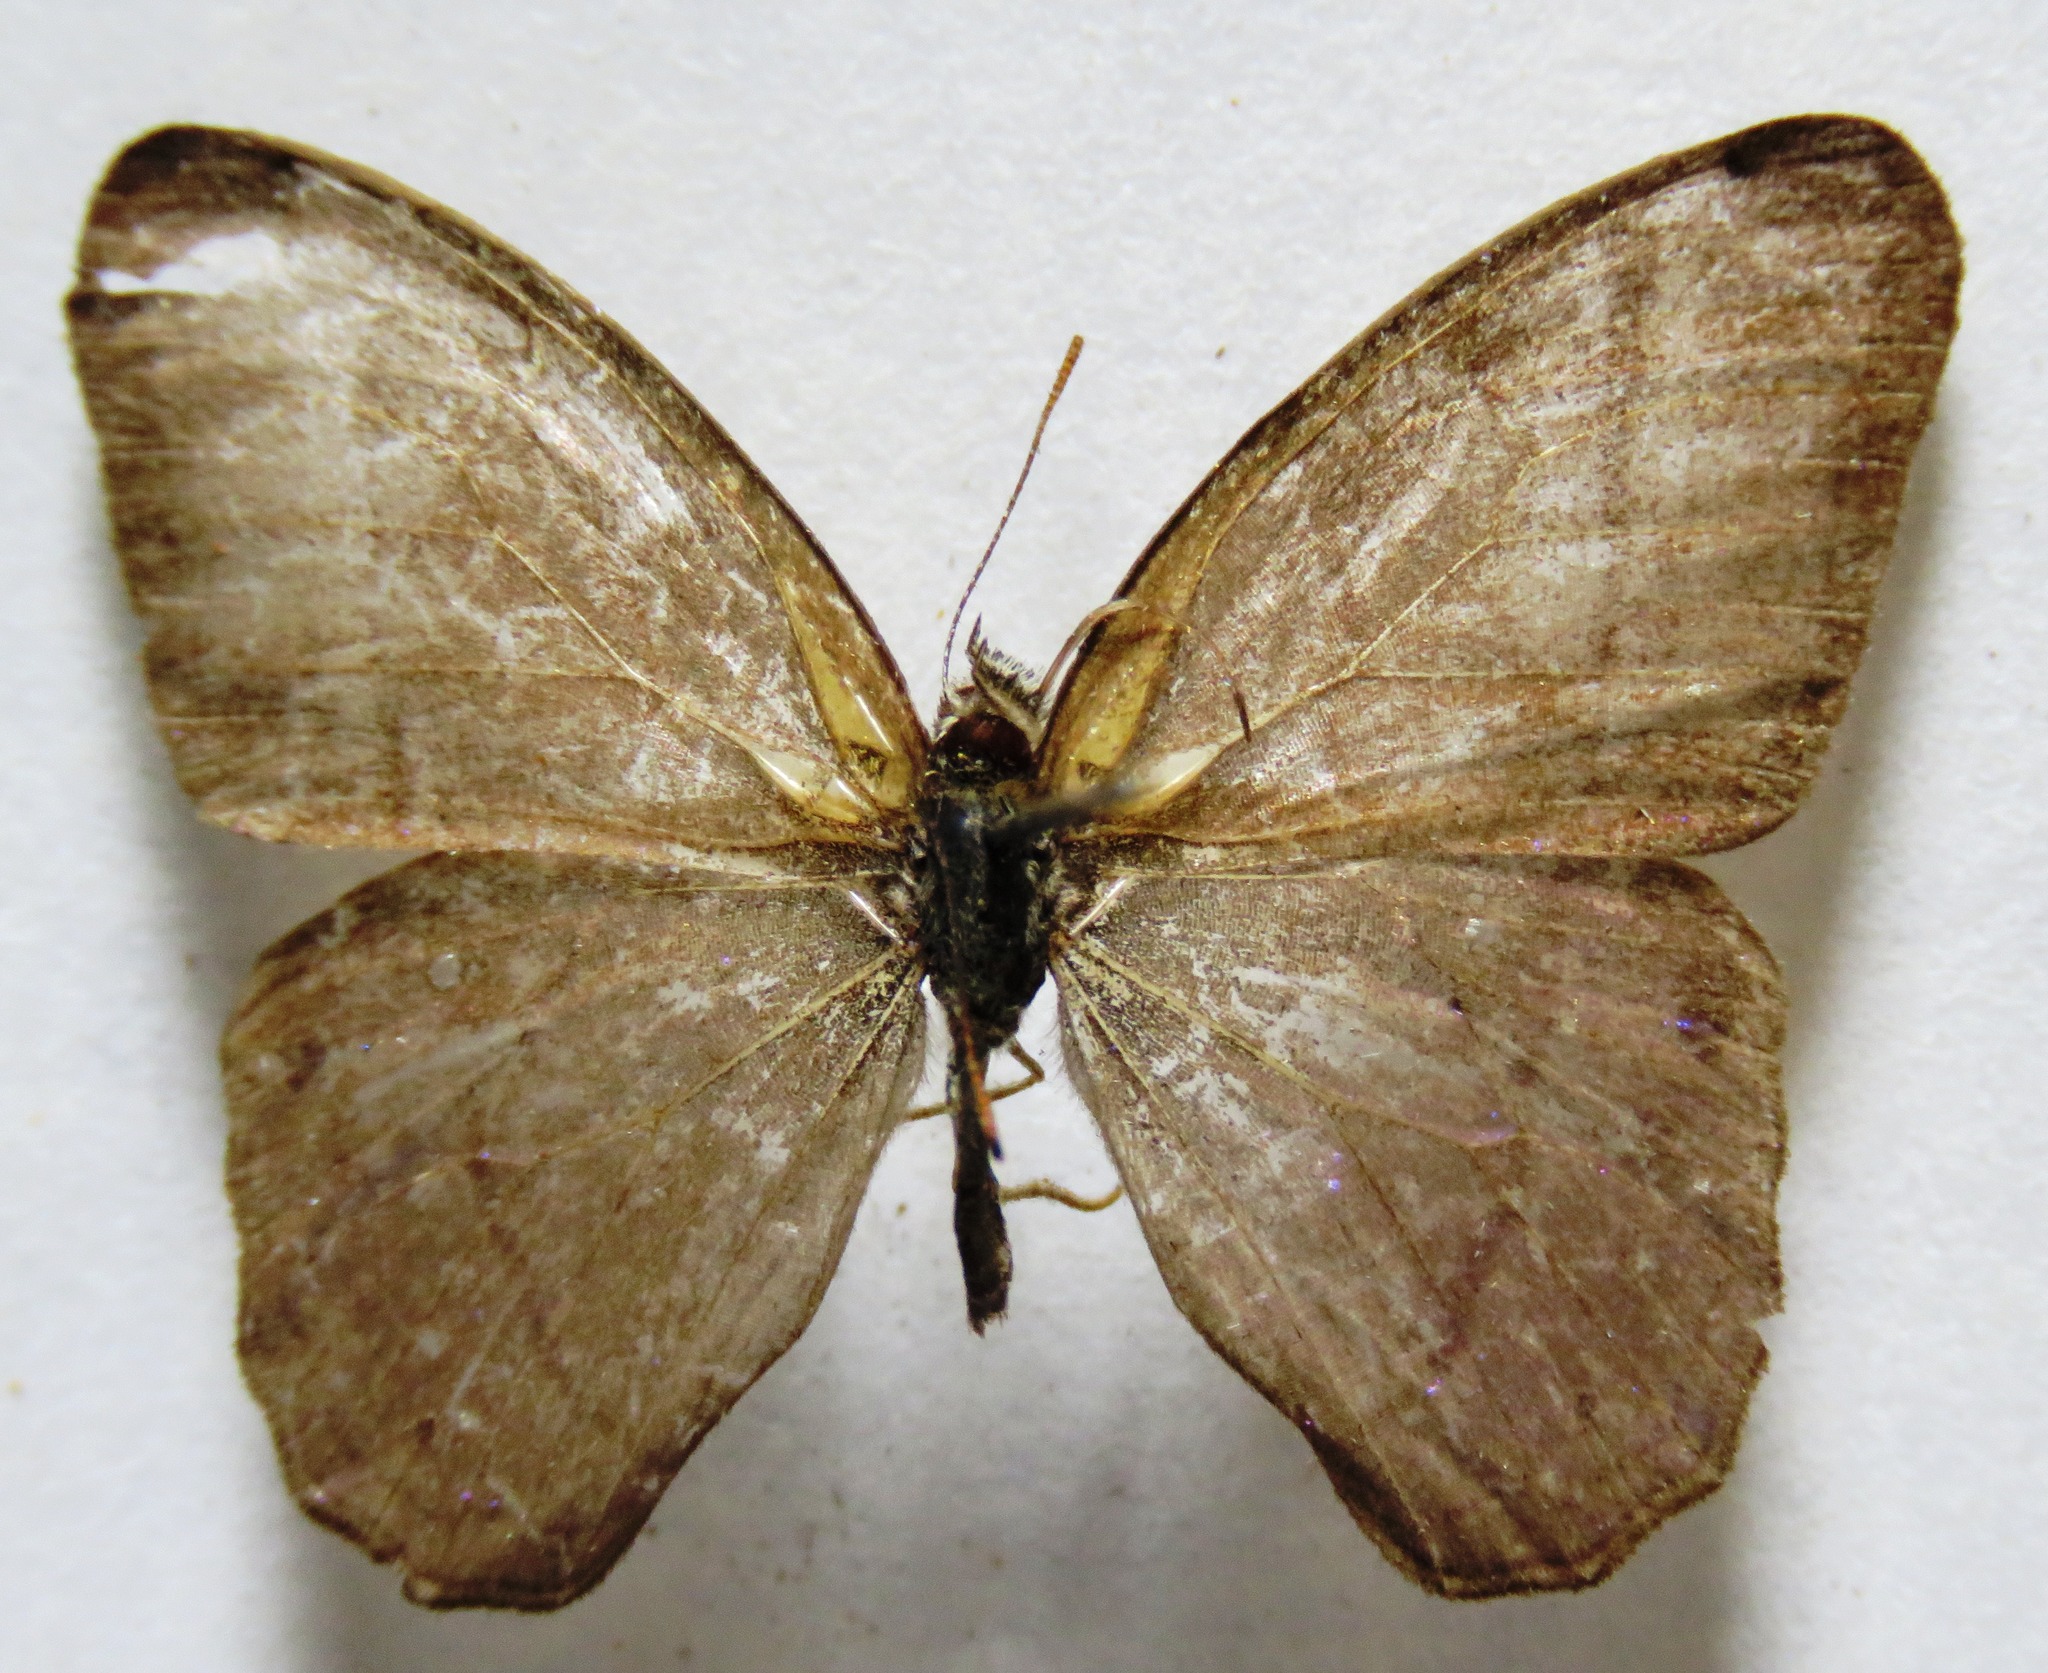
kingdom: Animalia
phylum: Arthropoda
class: Insecta
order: Lepidoptera
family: Nymphalidae
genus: Amiga
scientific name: Amiga sericeella
